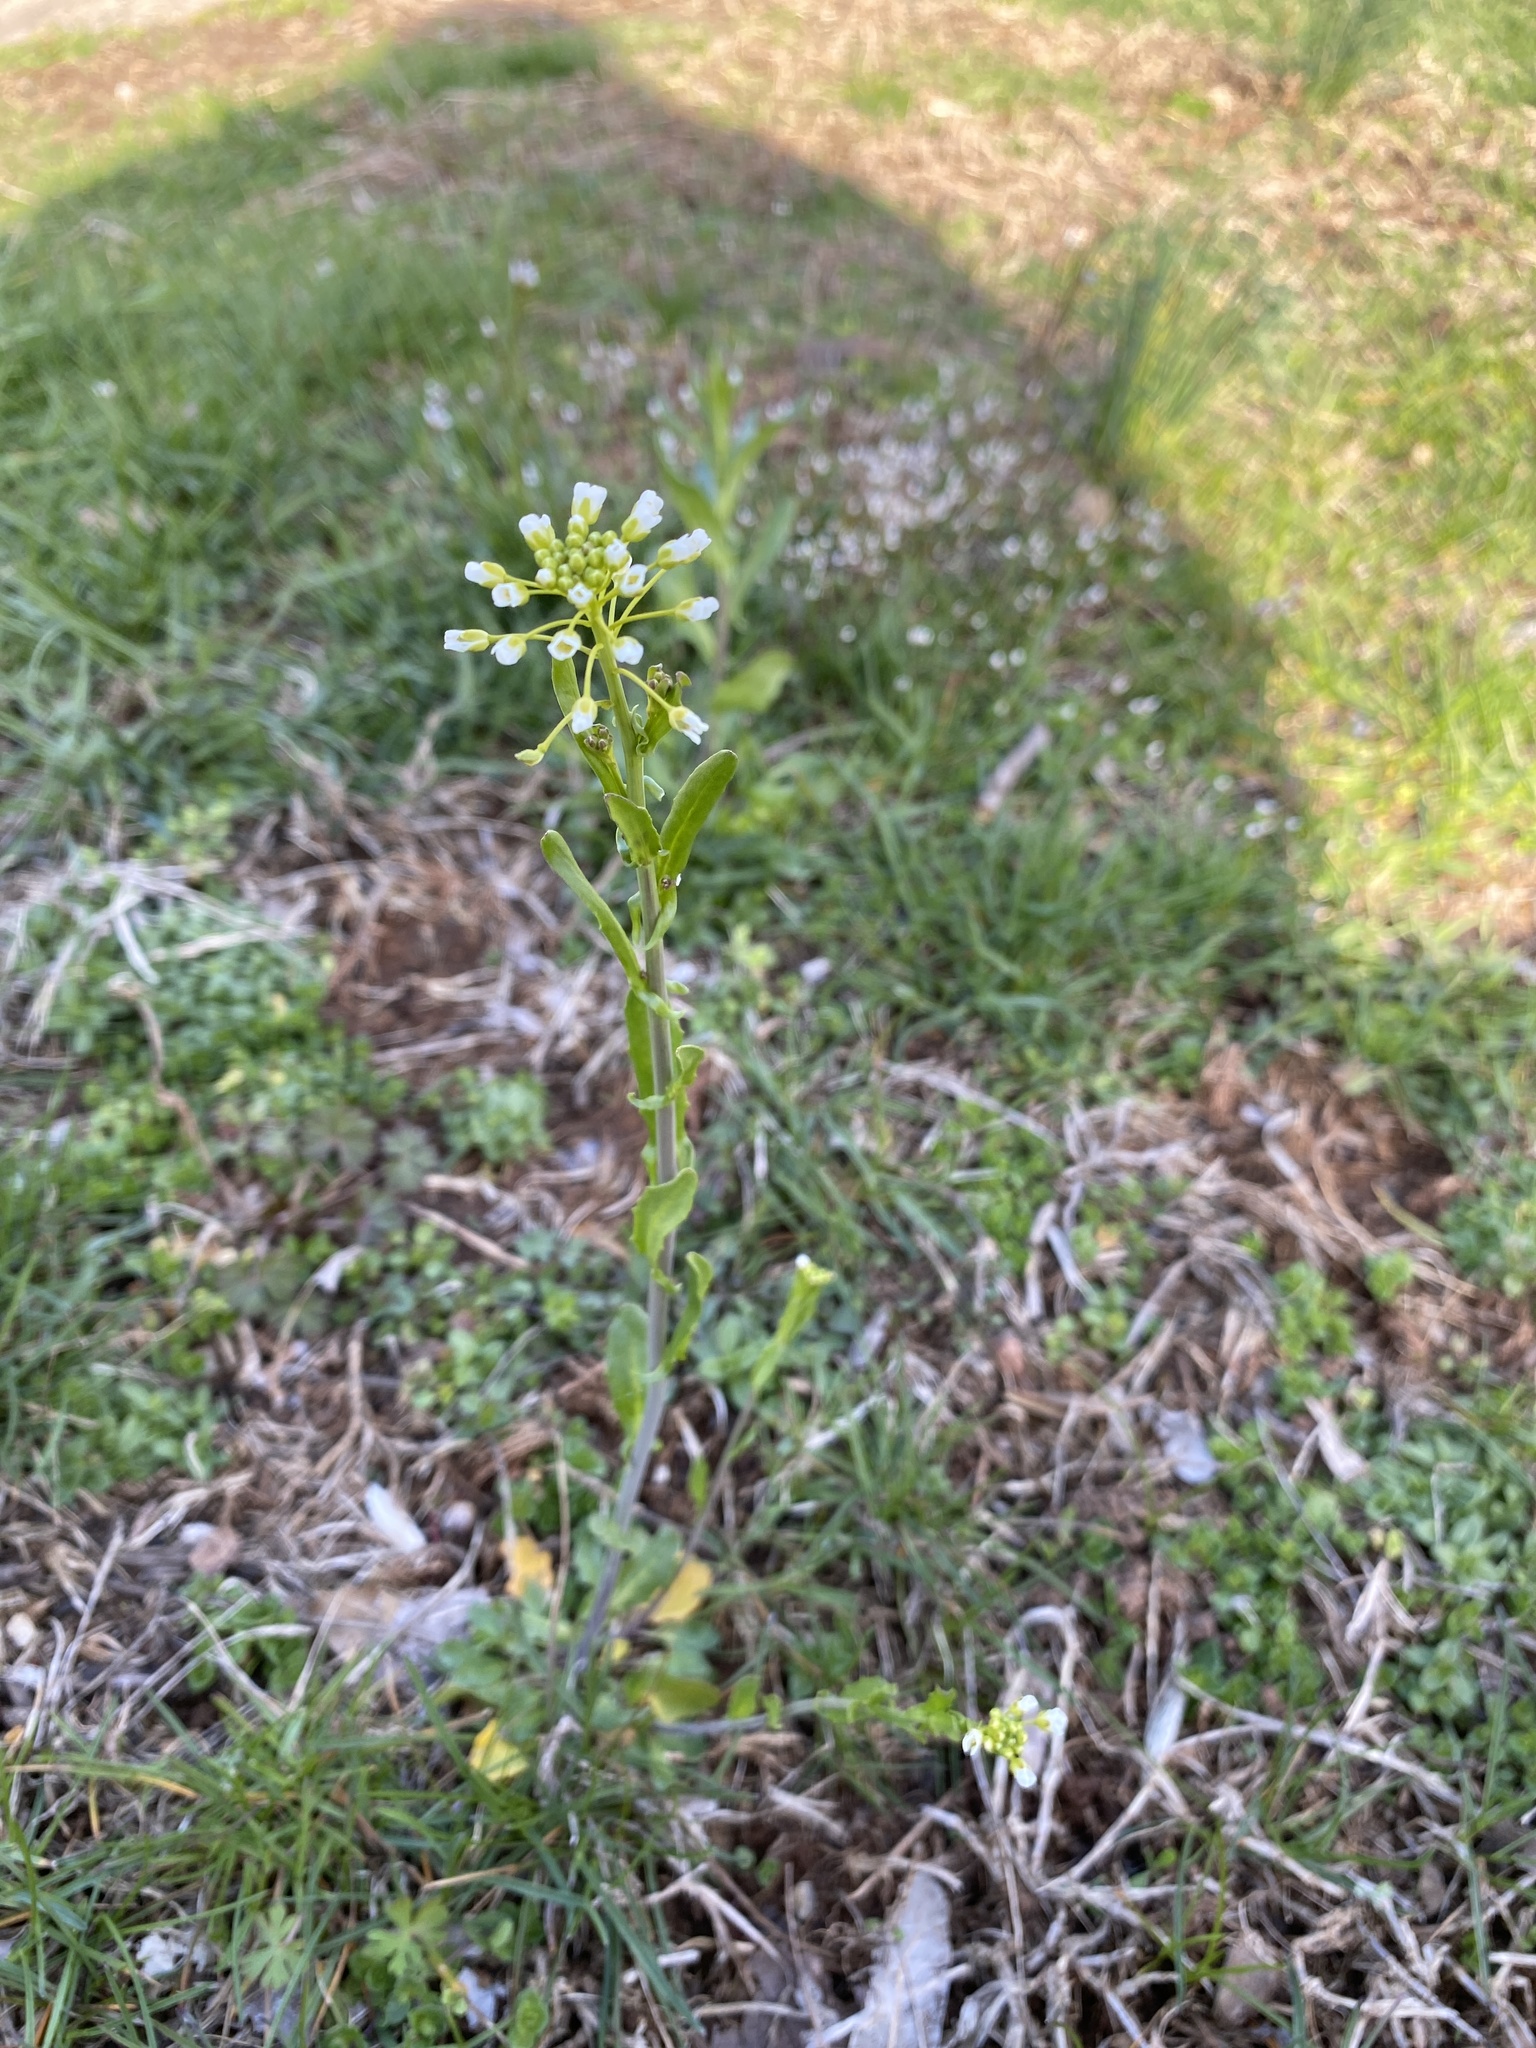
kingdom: Plantae
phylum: Tracheophyta
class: Magnoliopsida
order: Brassicales
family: Brassicaceae
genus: Mummenhoffia
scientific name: Mummenhoffia alliacea
